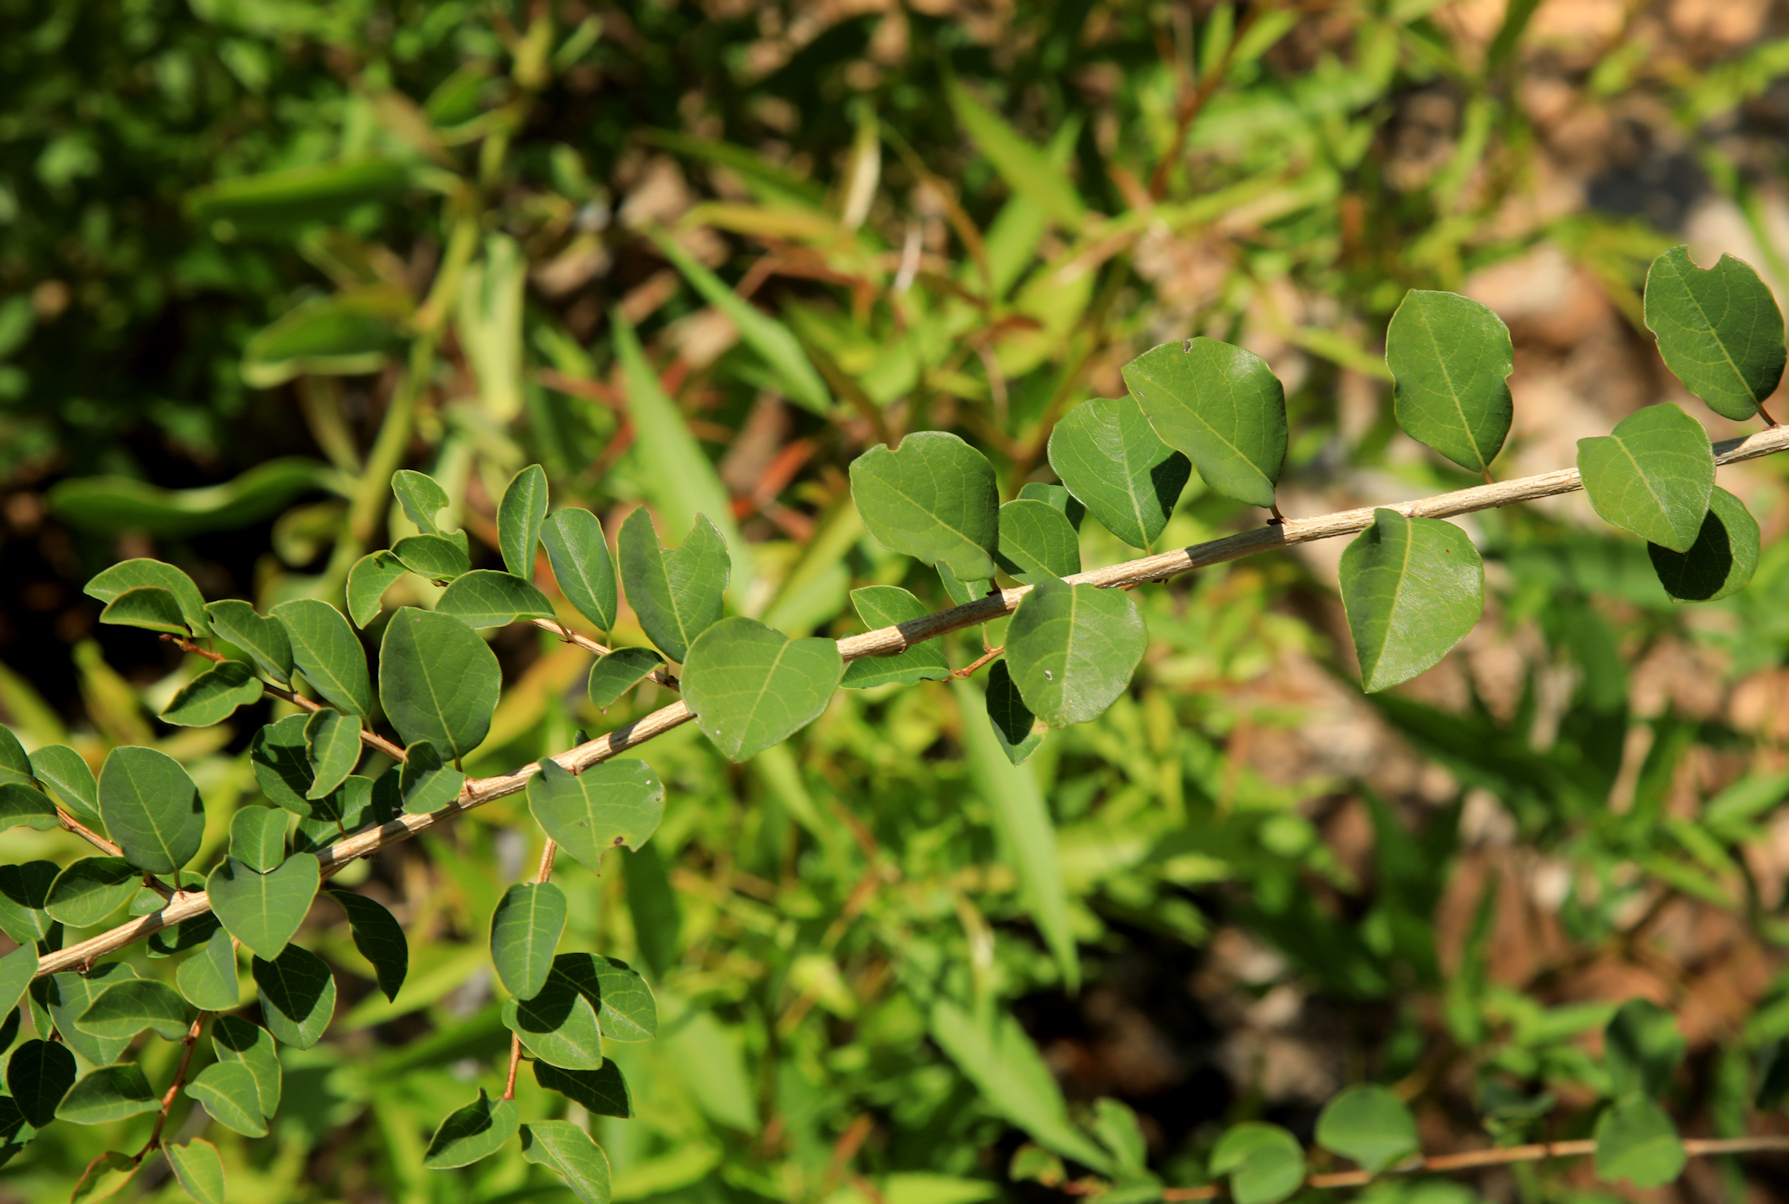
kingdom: Plantae
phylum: Tracheophyta
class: Magnoliopsida
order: Malpighiales
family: Phyllanthaceae
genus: Flueggea
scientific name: Flueggea virosa
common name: Common bushweed
